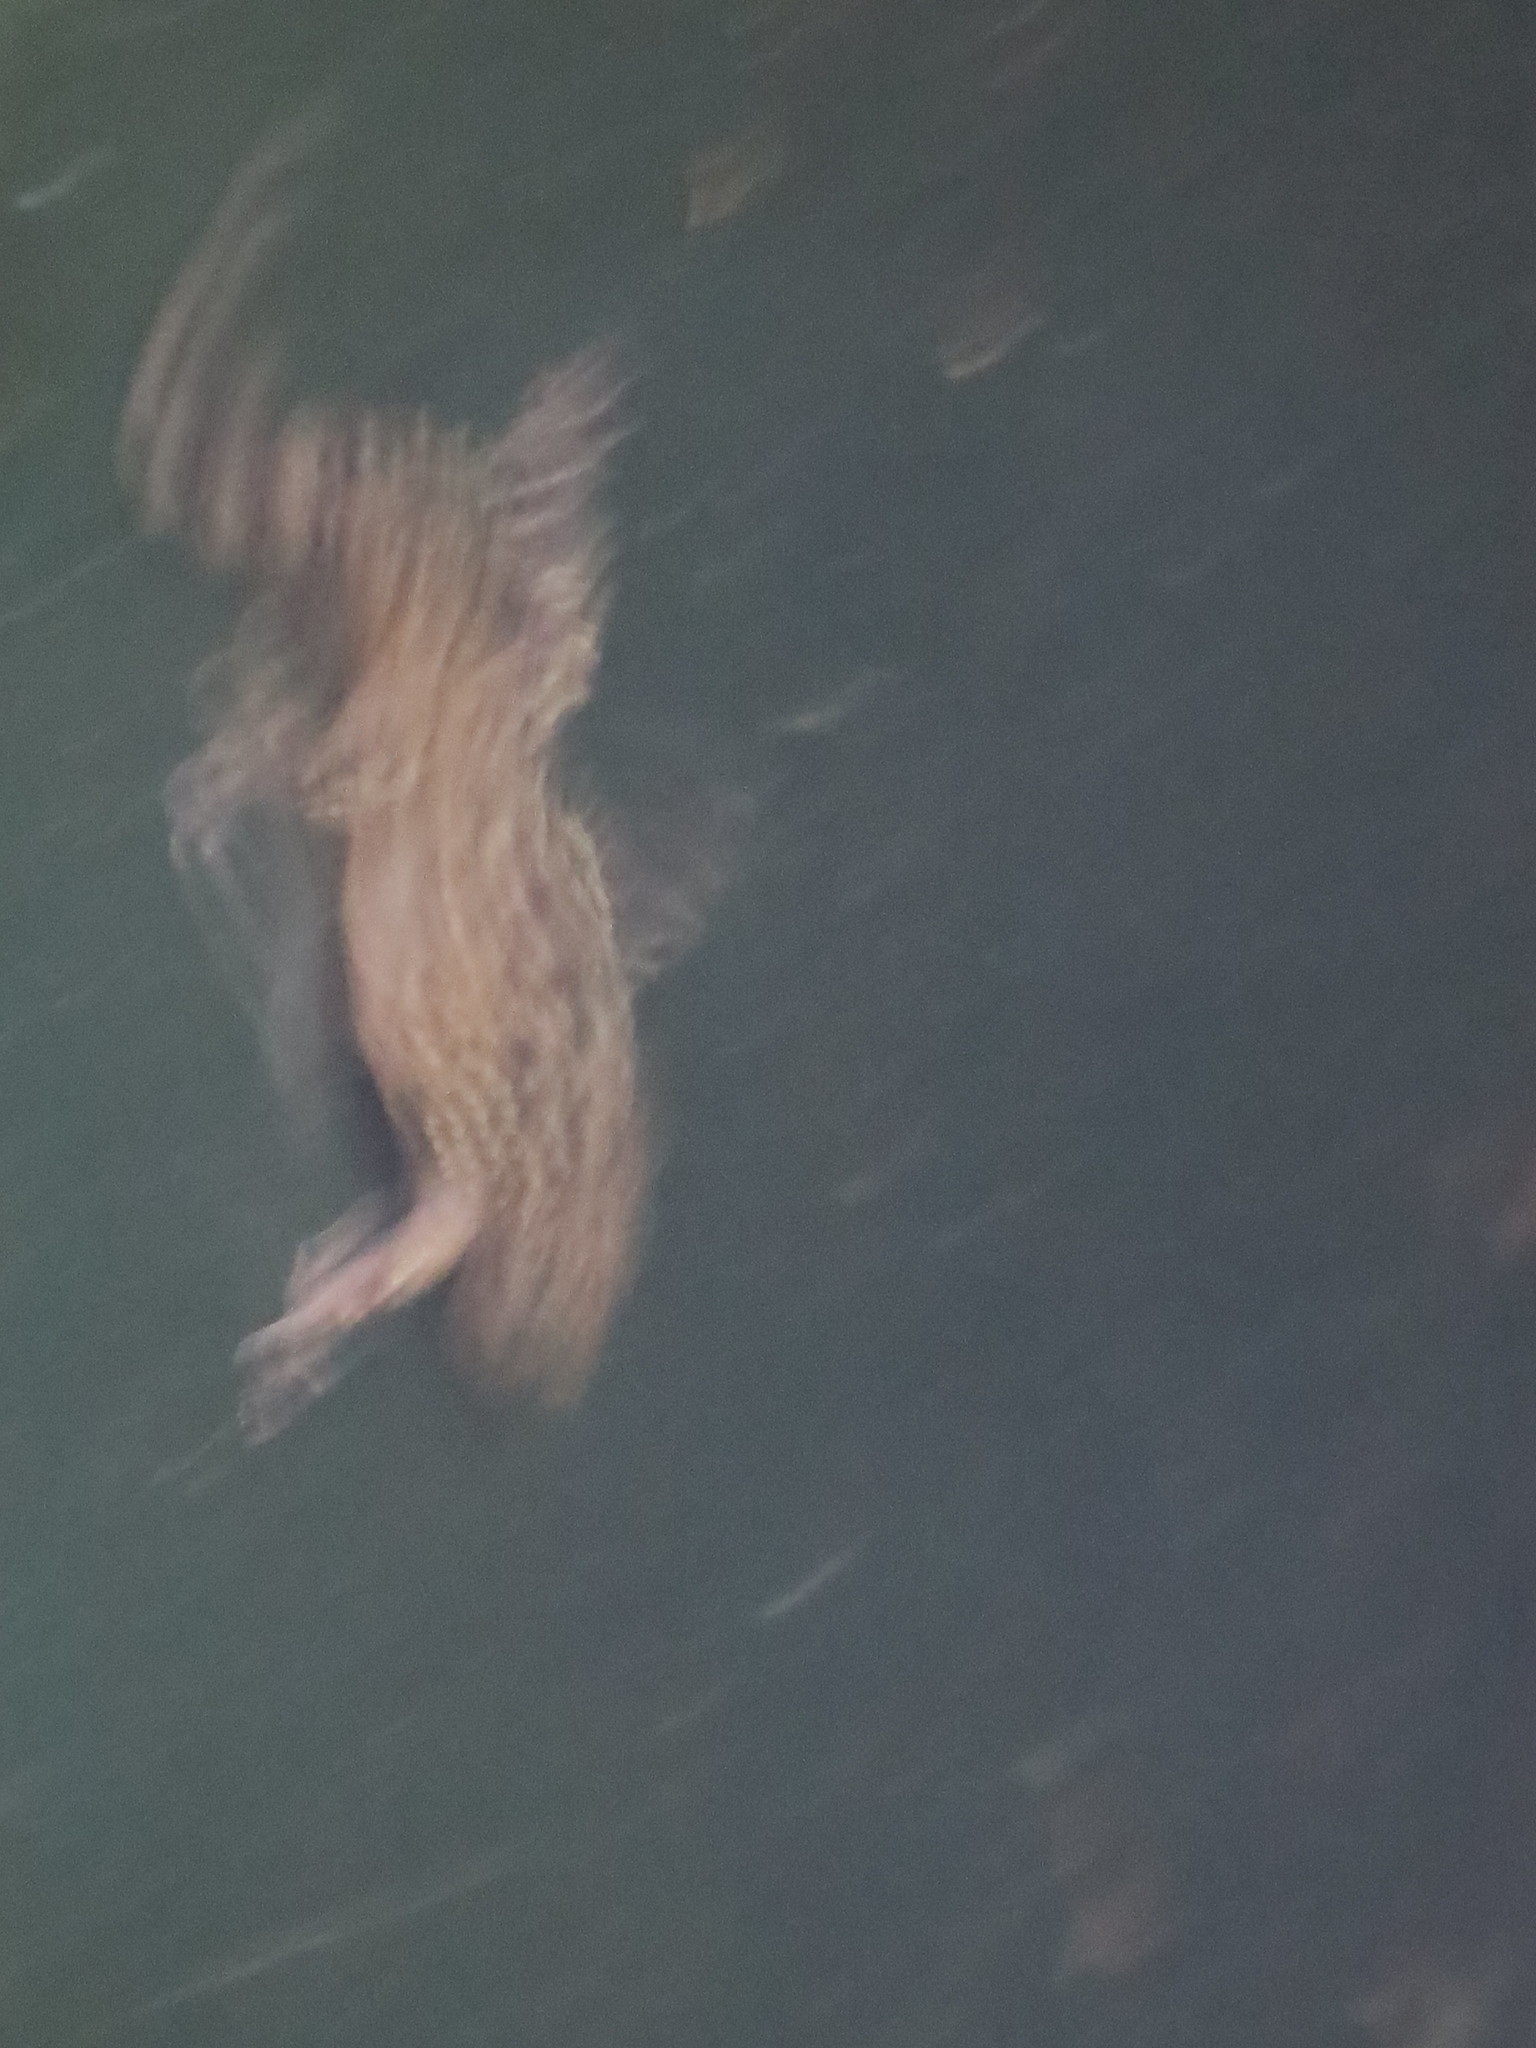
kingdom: Animalia
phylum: Chordata
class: Squamata
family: Gekkonidae
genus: Hemidactylus
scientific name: Hemidactylus turcicus
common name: Turkish gecko
